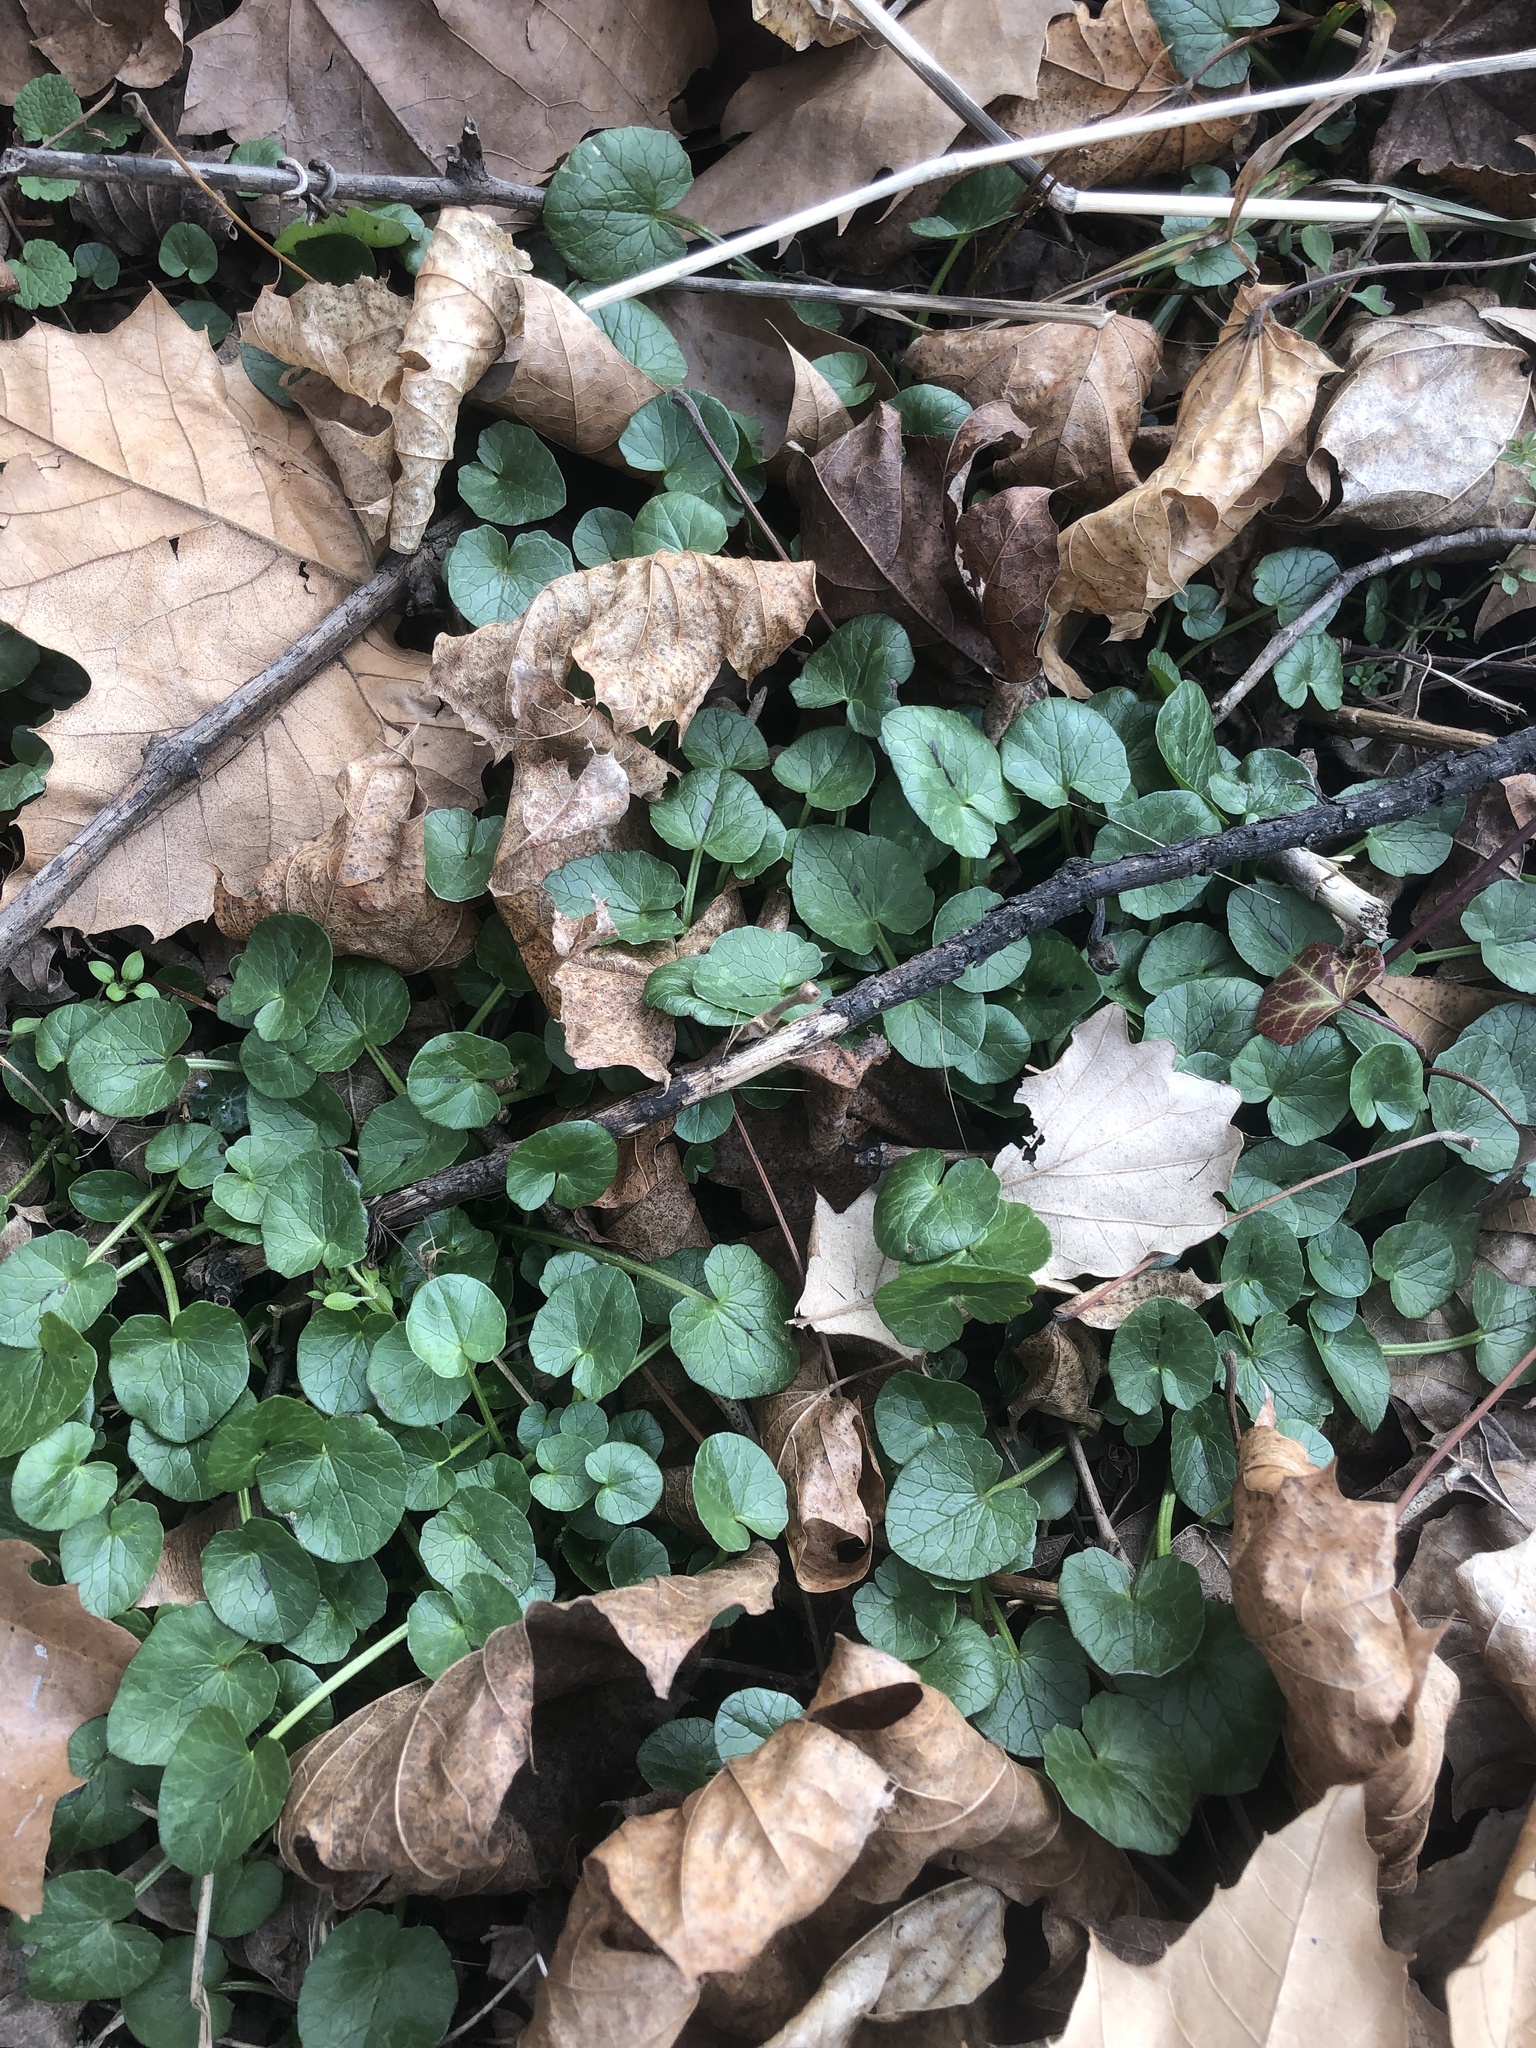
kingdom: Plantae
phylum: Tracheophyta
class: Magnoliopsida
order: Ranunculales
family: Ranunculaceae
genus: Ficaria
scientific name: Ficaria verna
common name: Lesser celandine
